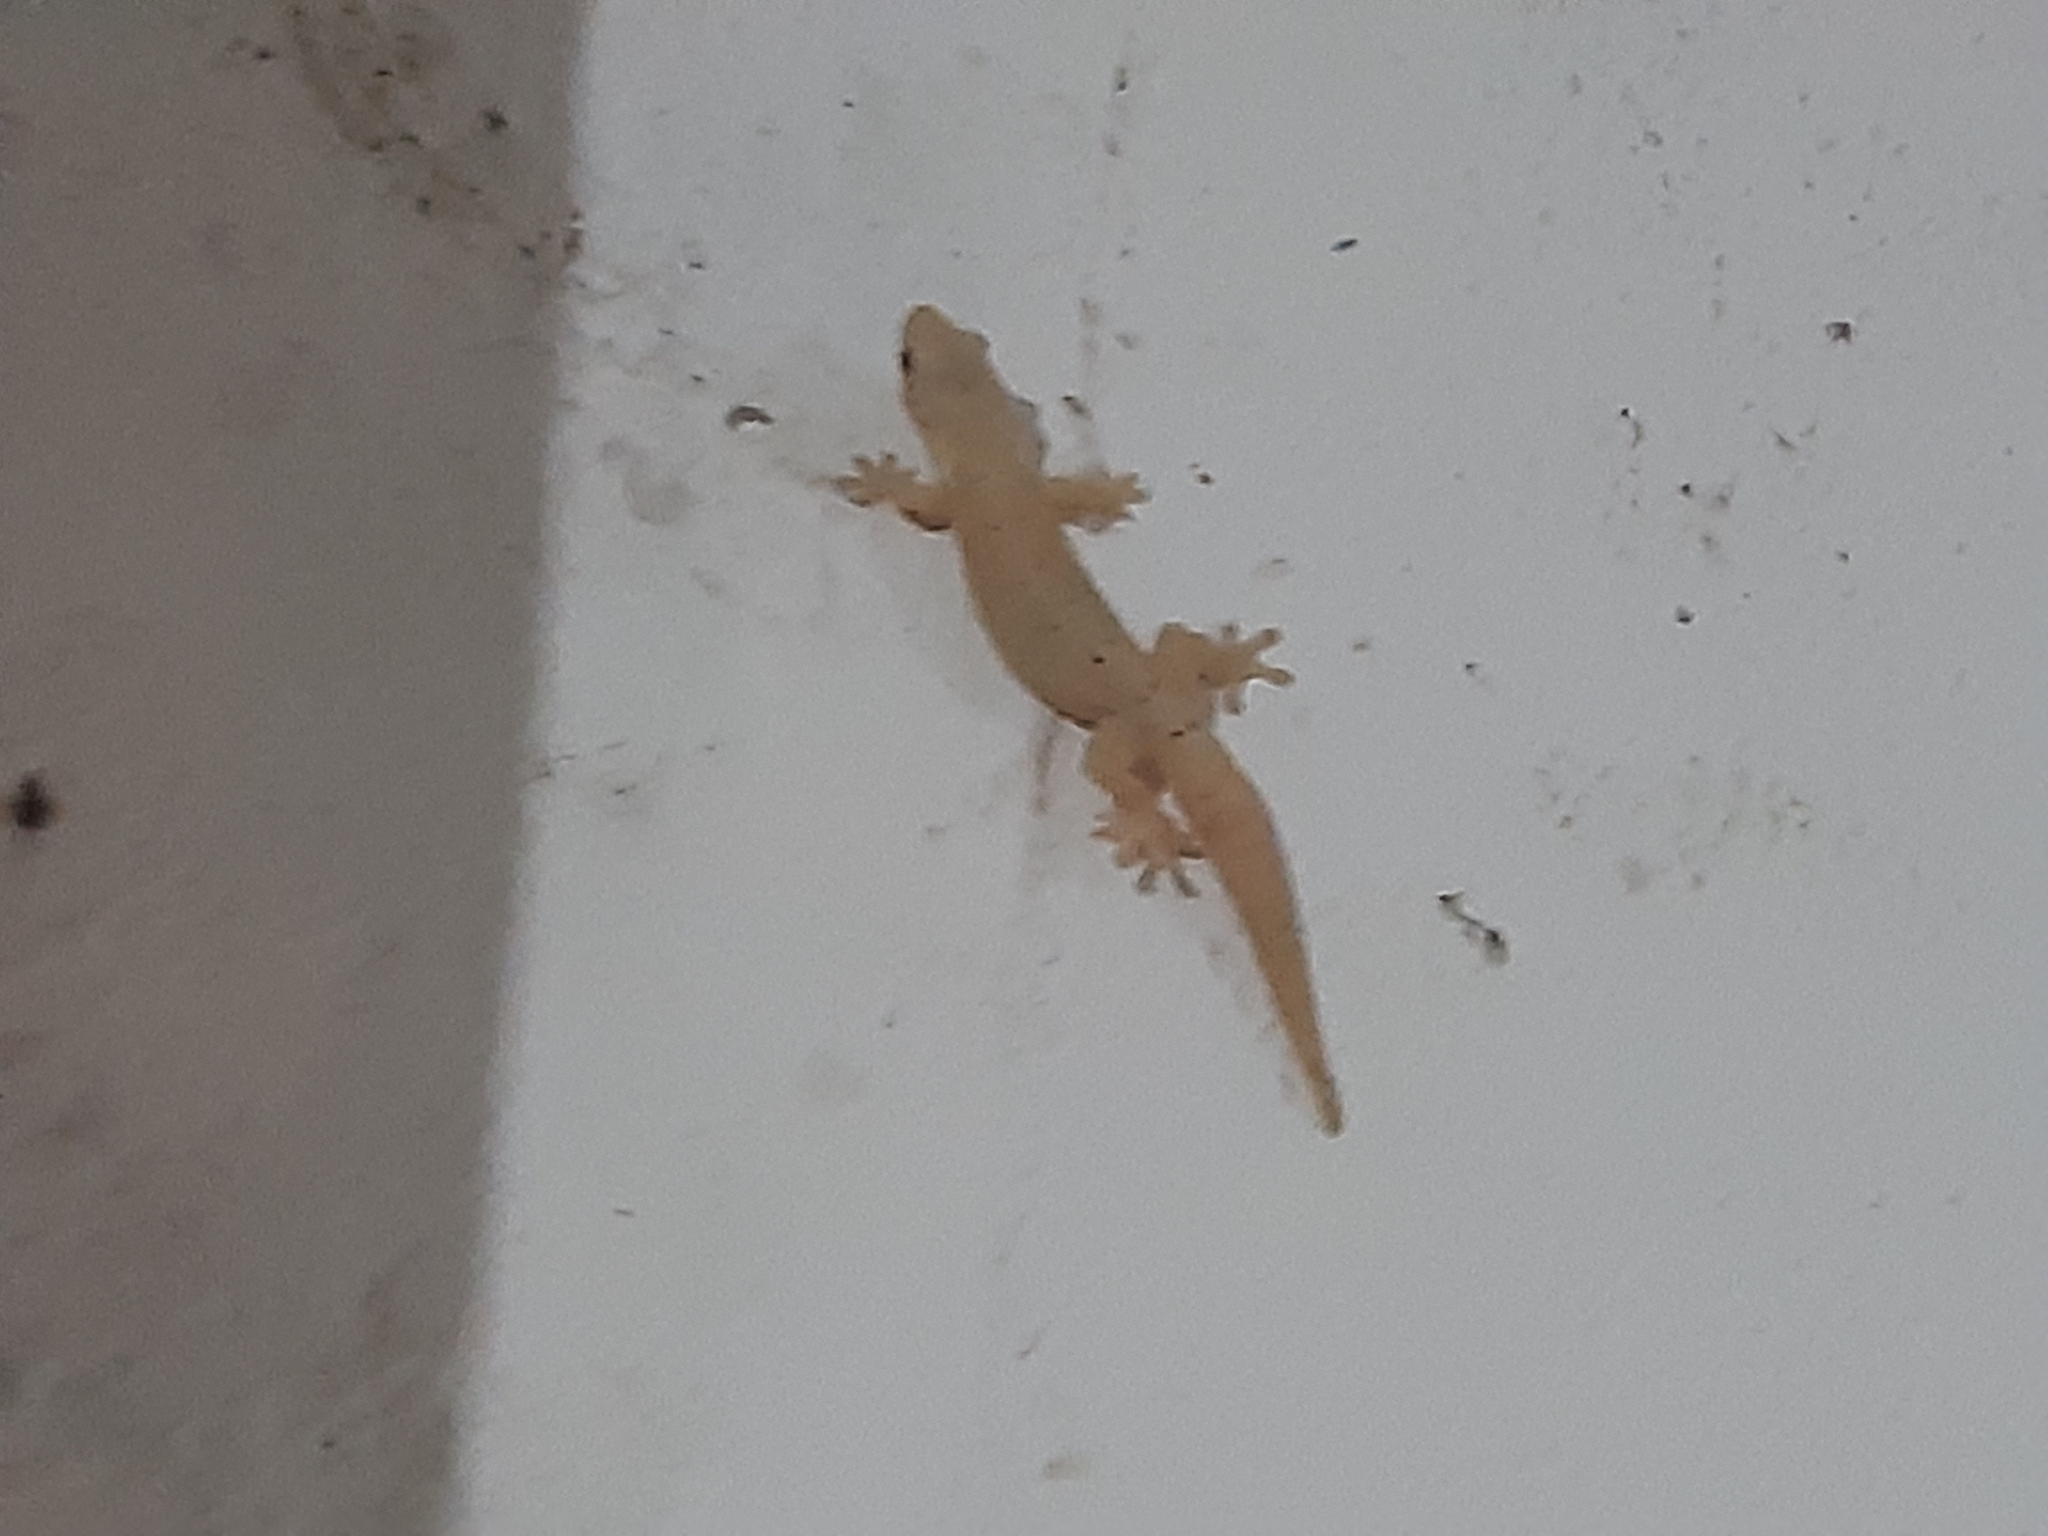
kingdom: Animalia
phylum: Chordata
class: Squamata
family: Gekkonidae
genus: Lepidodactylus
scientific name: Lepidodactylus lugubris
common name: Mourning gecko
